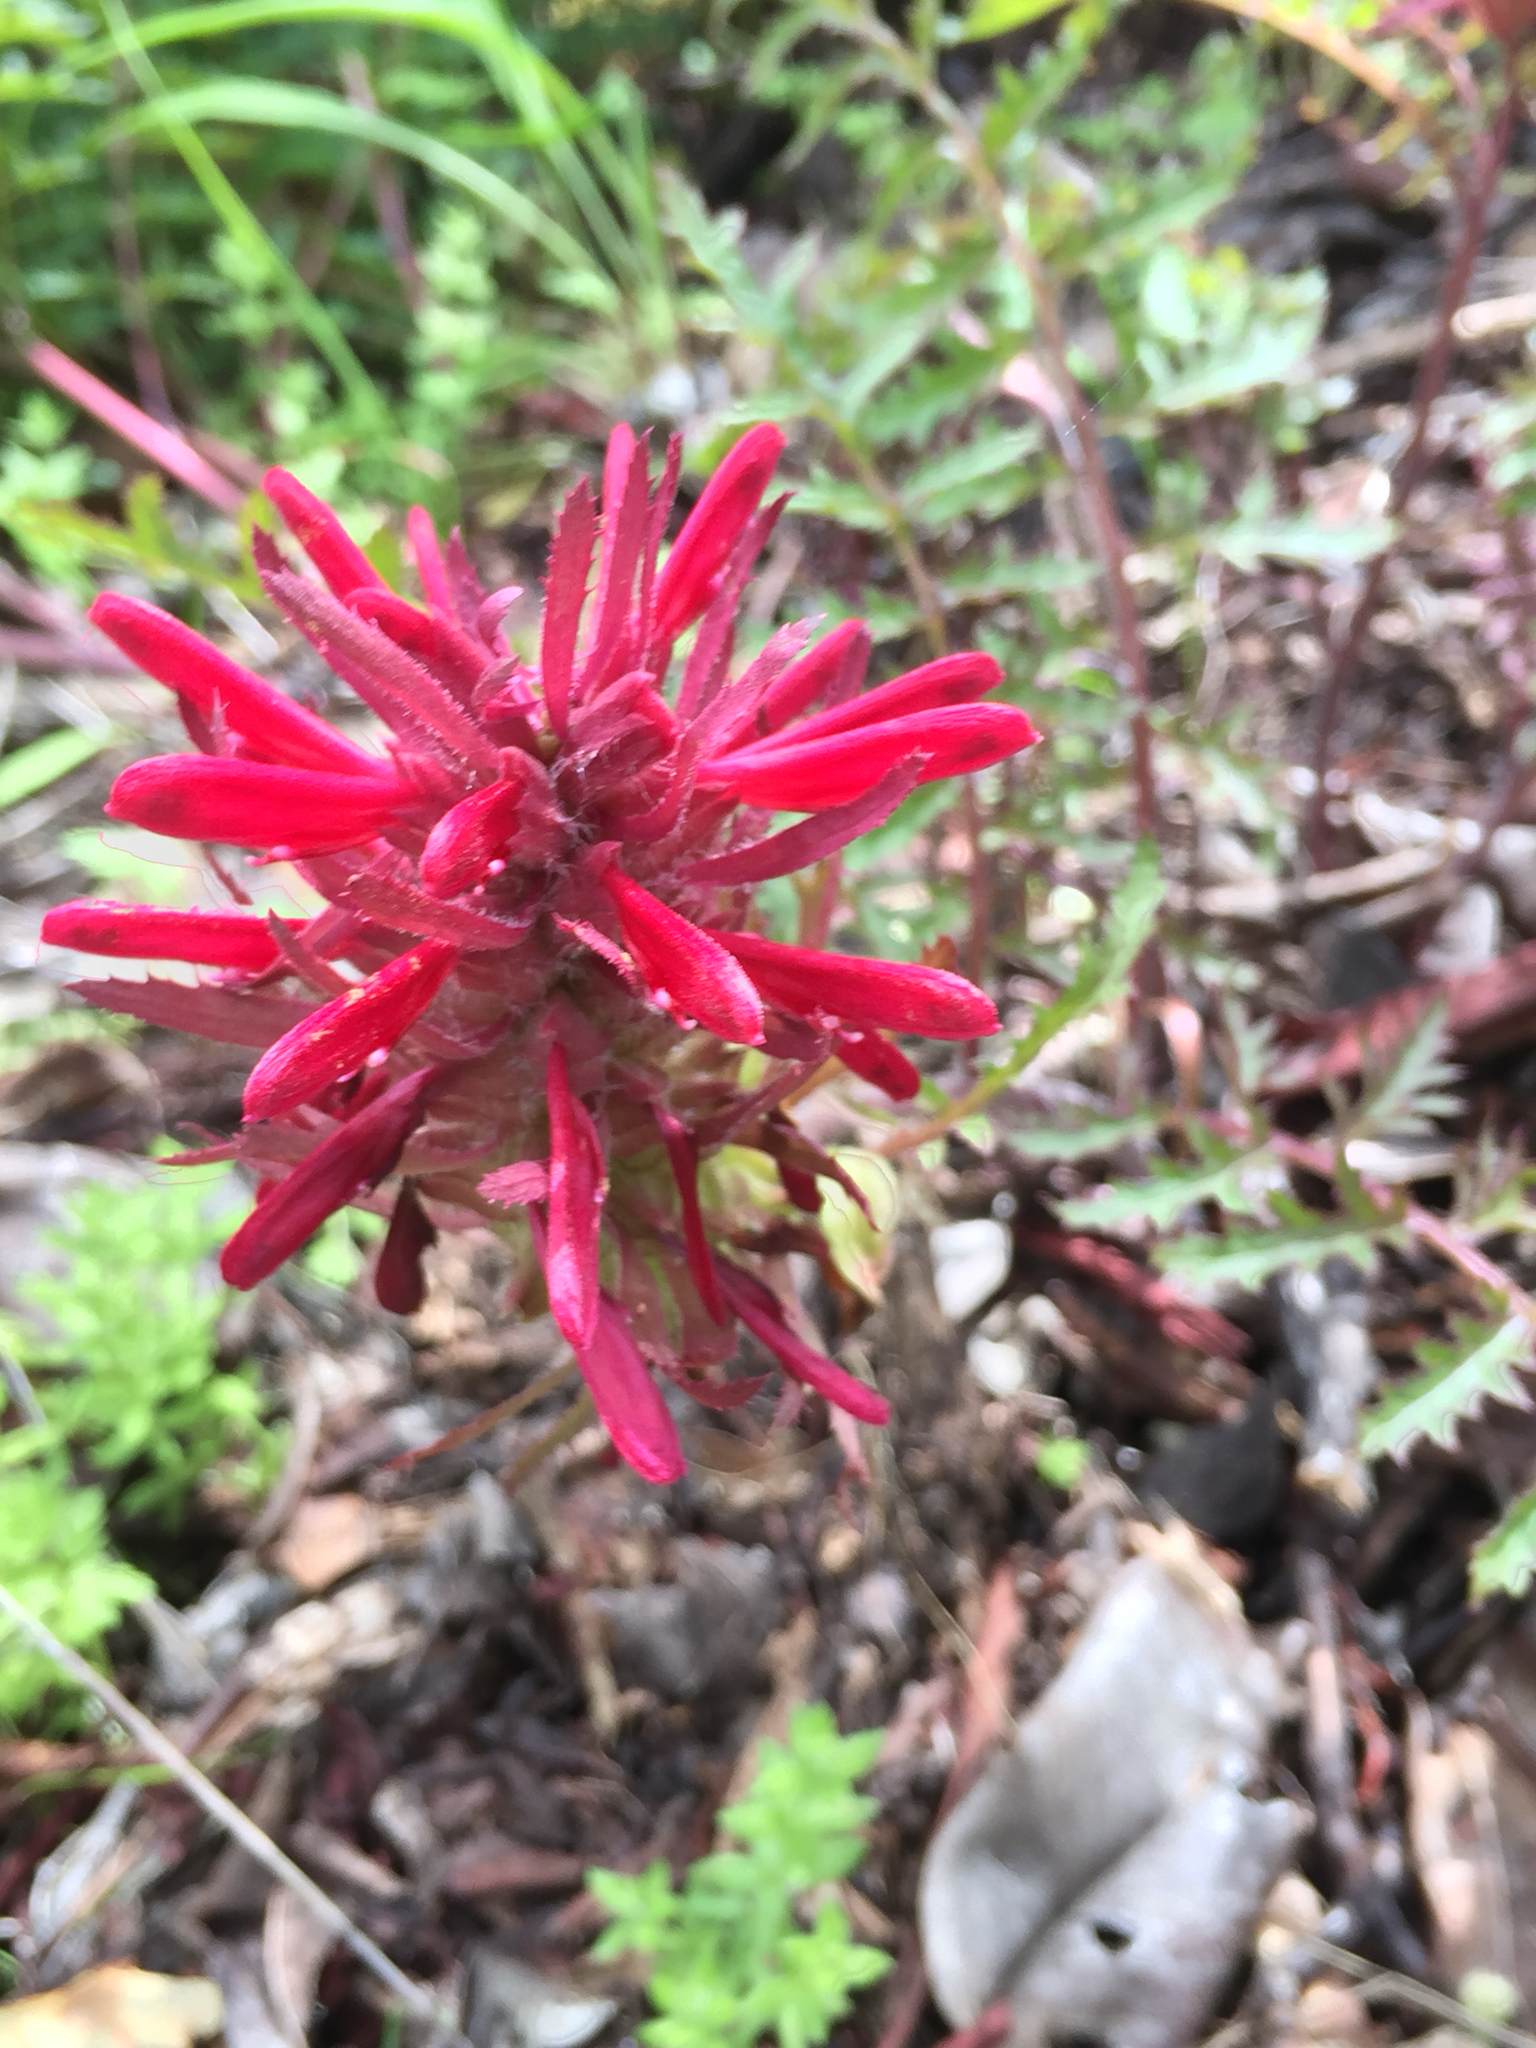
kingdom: Plantae
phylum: Tracheophyta
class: Magnoliopsida
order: Lamiales
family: Orobanchaceae
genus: Pedicularis
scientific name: Pedicularis densiflora
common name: Indian warrior
